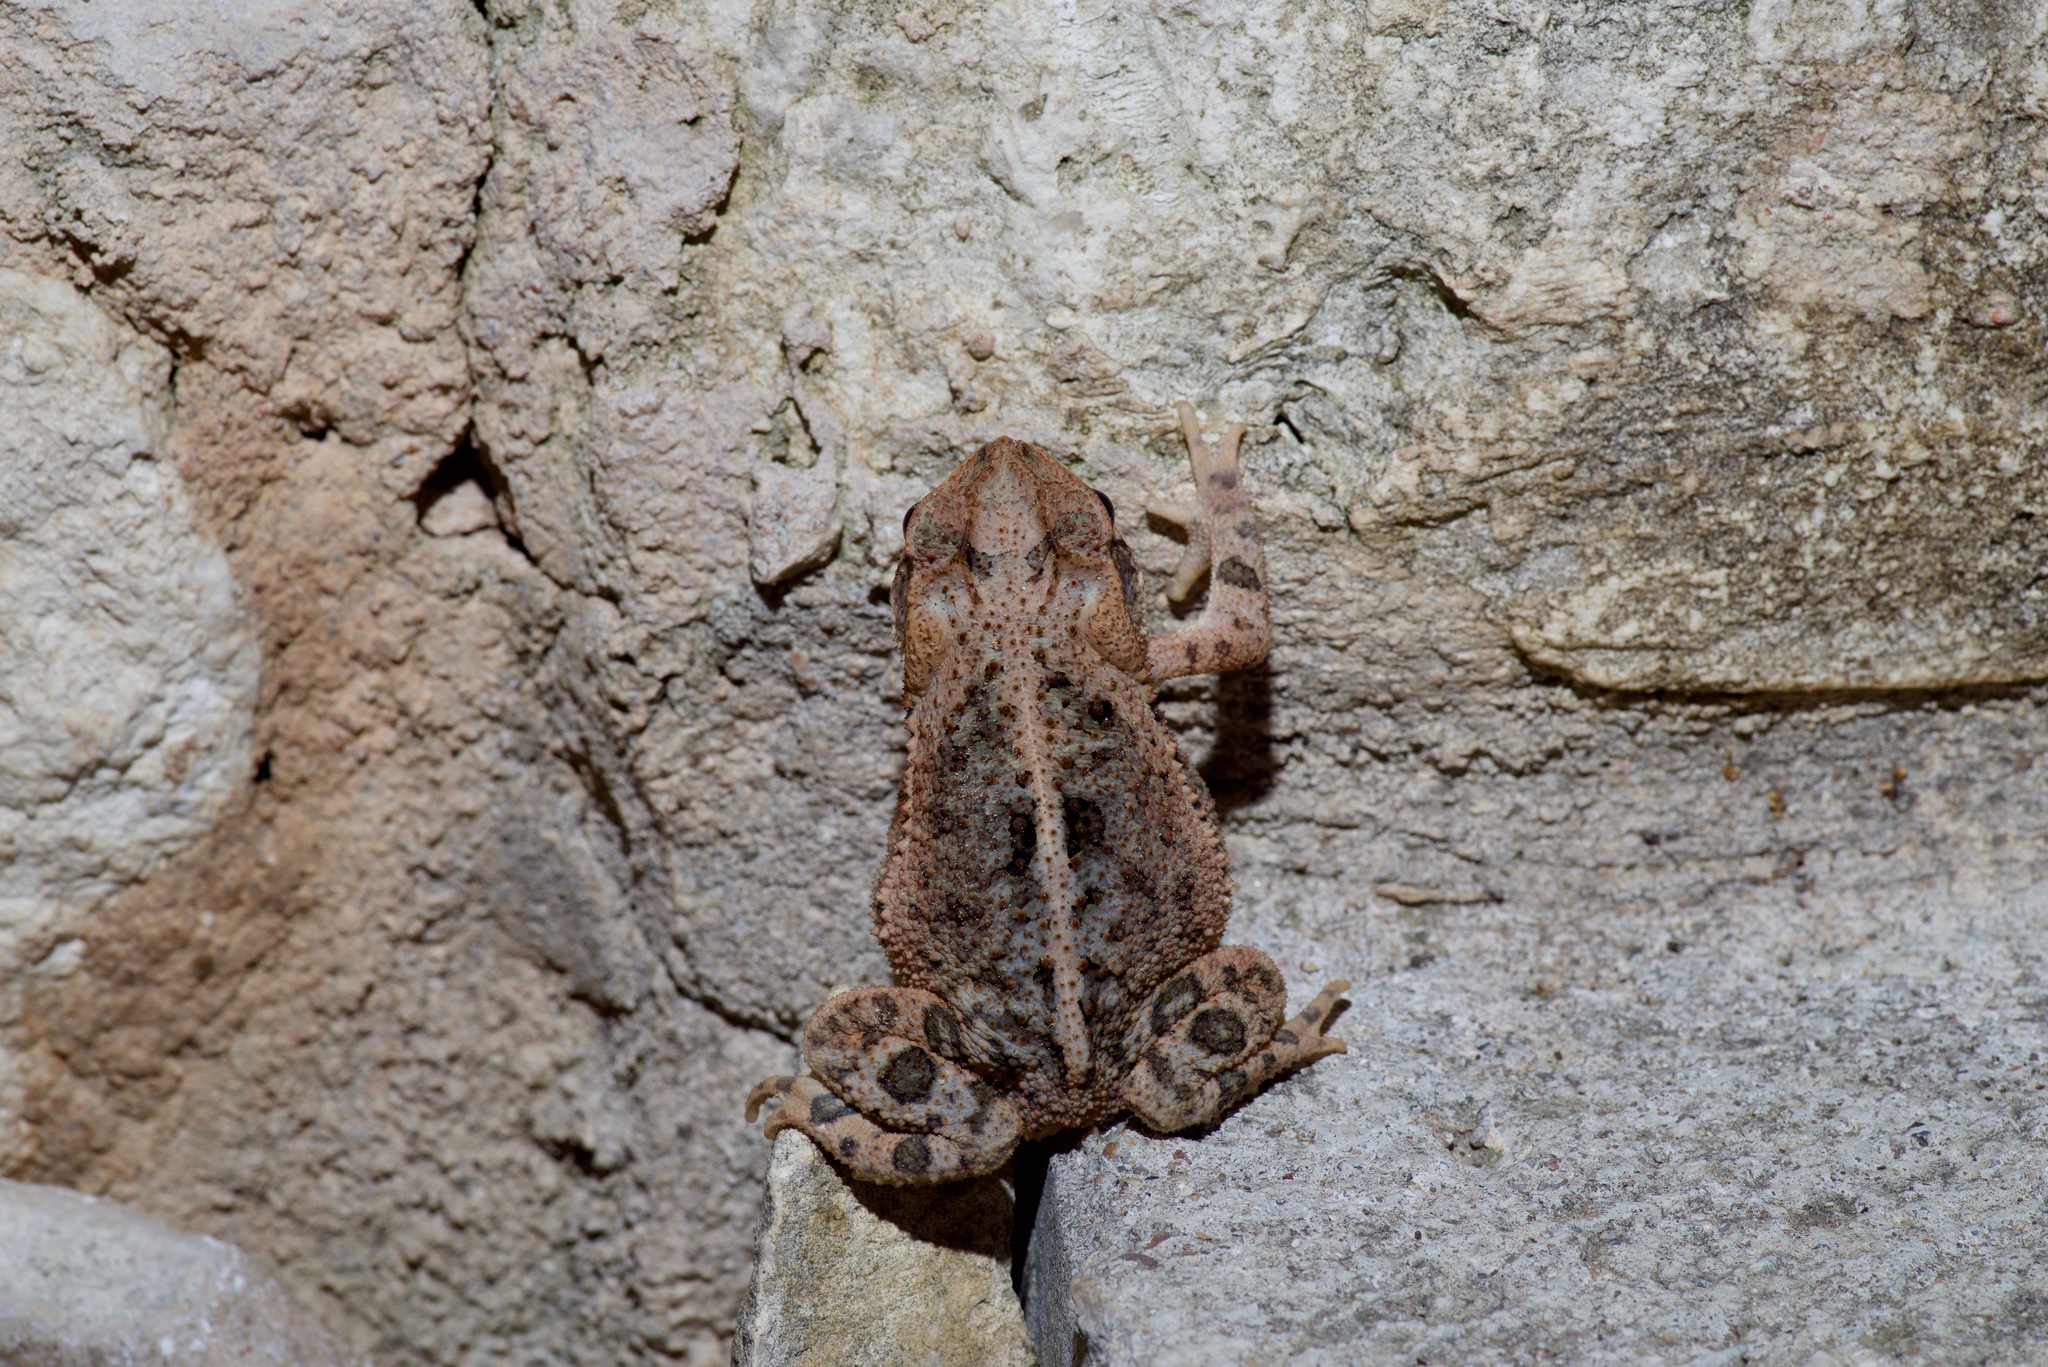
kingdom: Animalia
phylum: Chordata
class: Amphibia
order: Anura
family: Bufonidae
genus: Incilius
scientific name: Incilius nebulifer
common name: Gulf coast toad
